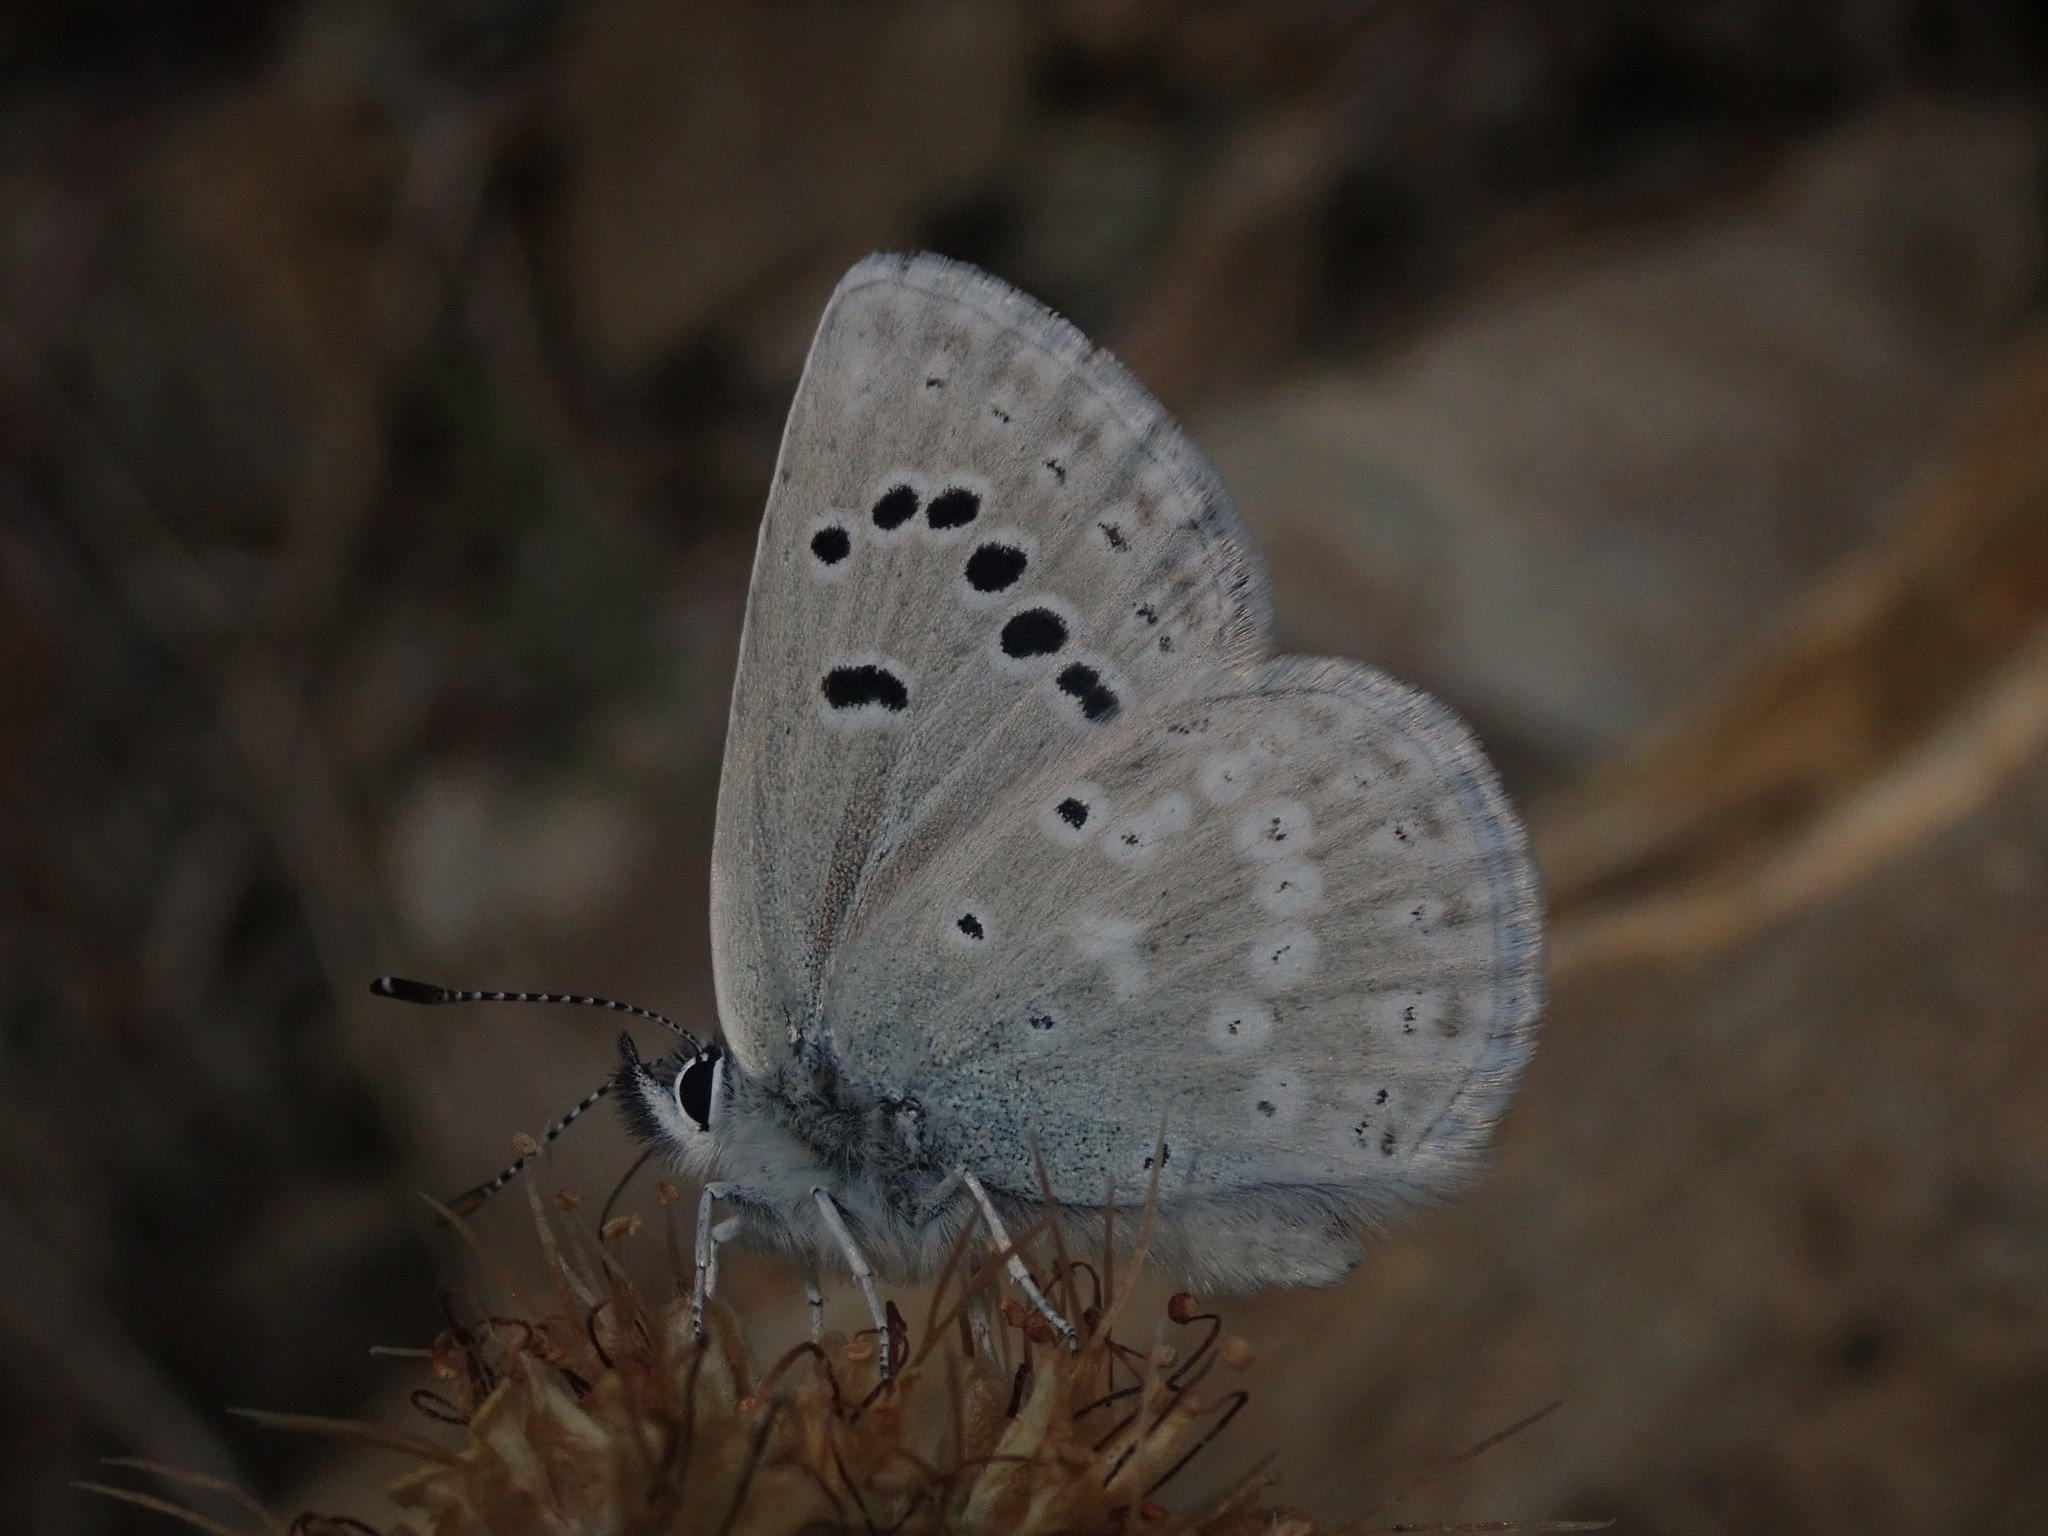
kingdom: Animalia
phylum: Arthropoda
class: Insecta
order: Lepidoptera
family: Lycaenidae
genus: Icaricia
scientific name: Icaricia icarioides
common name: Boisduval's blue
